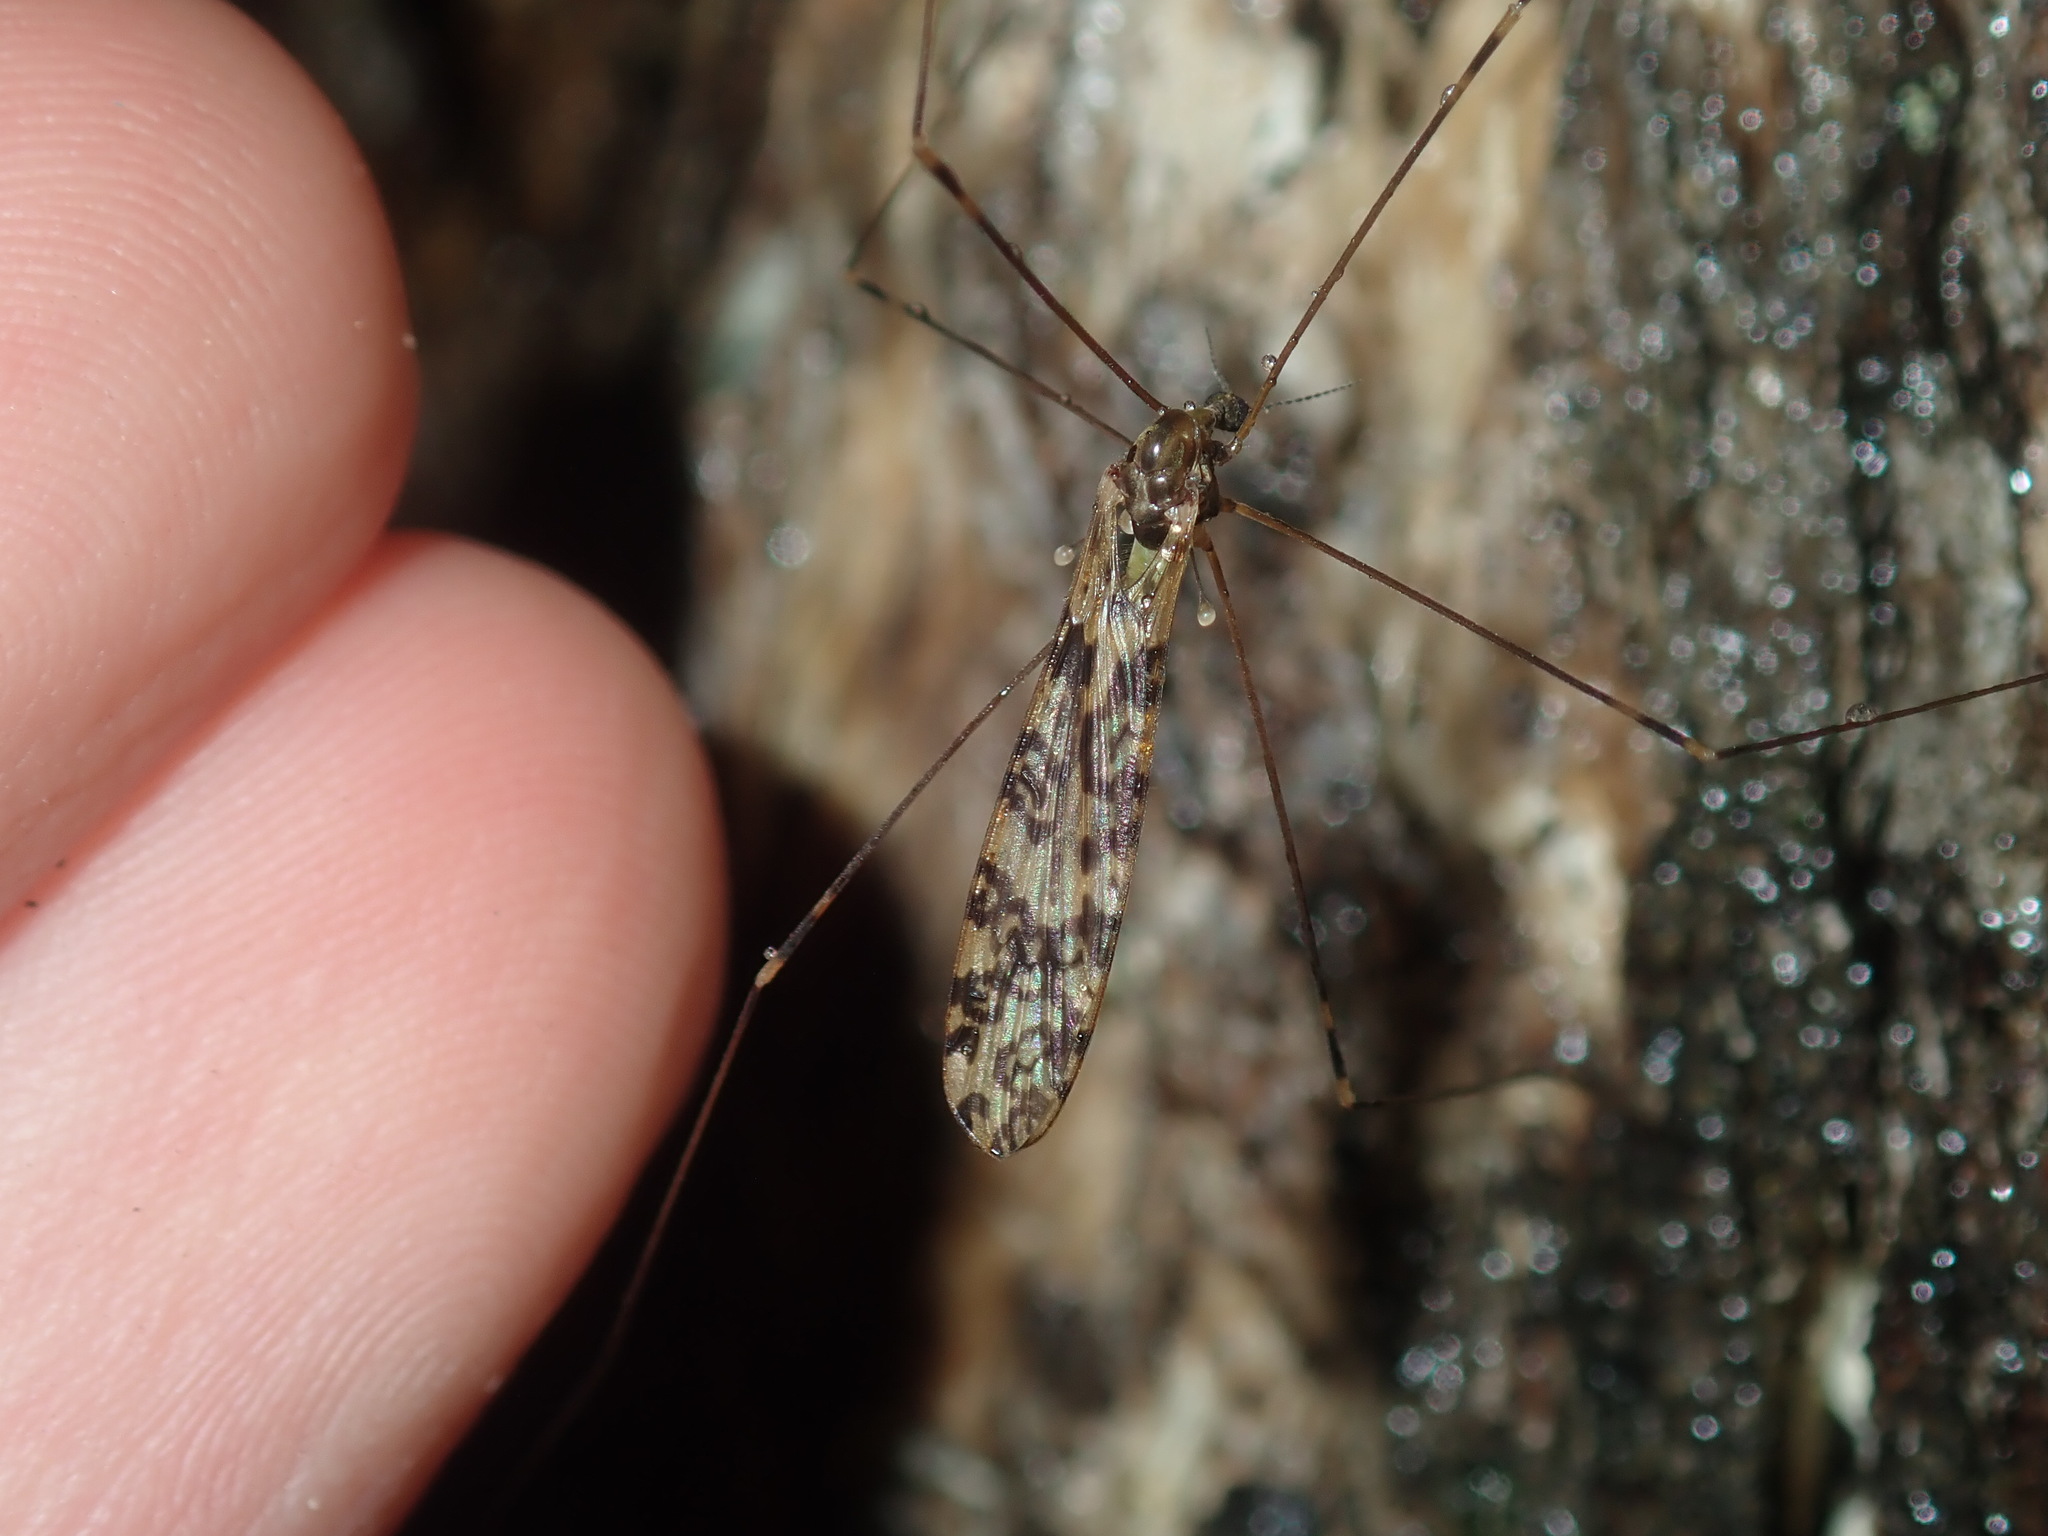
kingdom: Animalia
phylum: Arthropoda
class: Insecta
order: Diptera
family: Limoniidae
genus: Discobola
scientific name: Discobola australis
